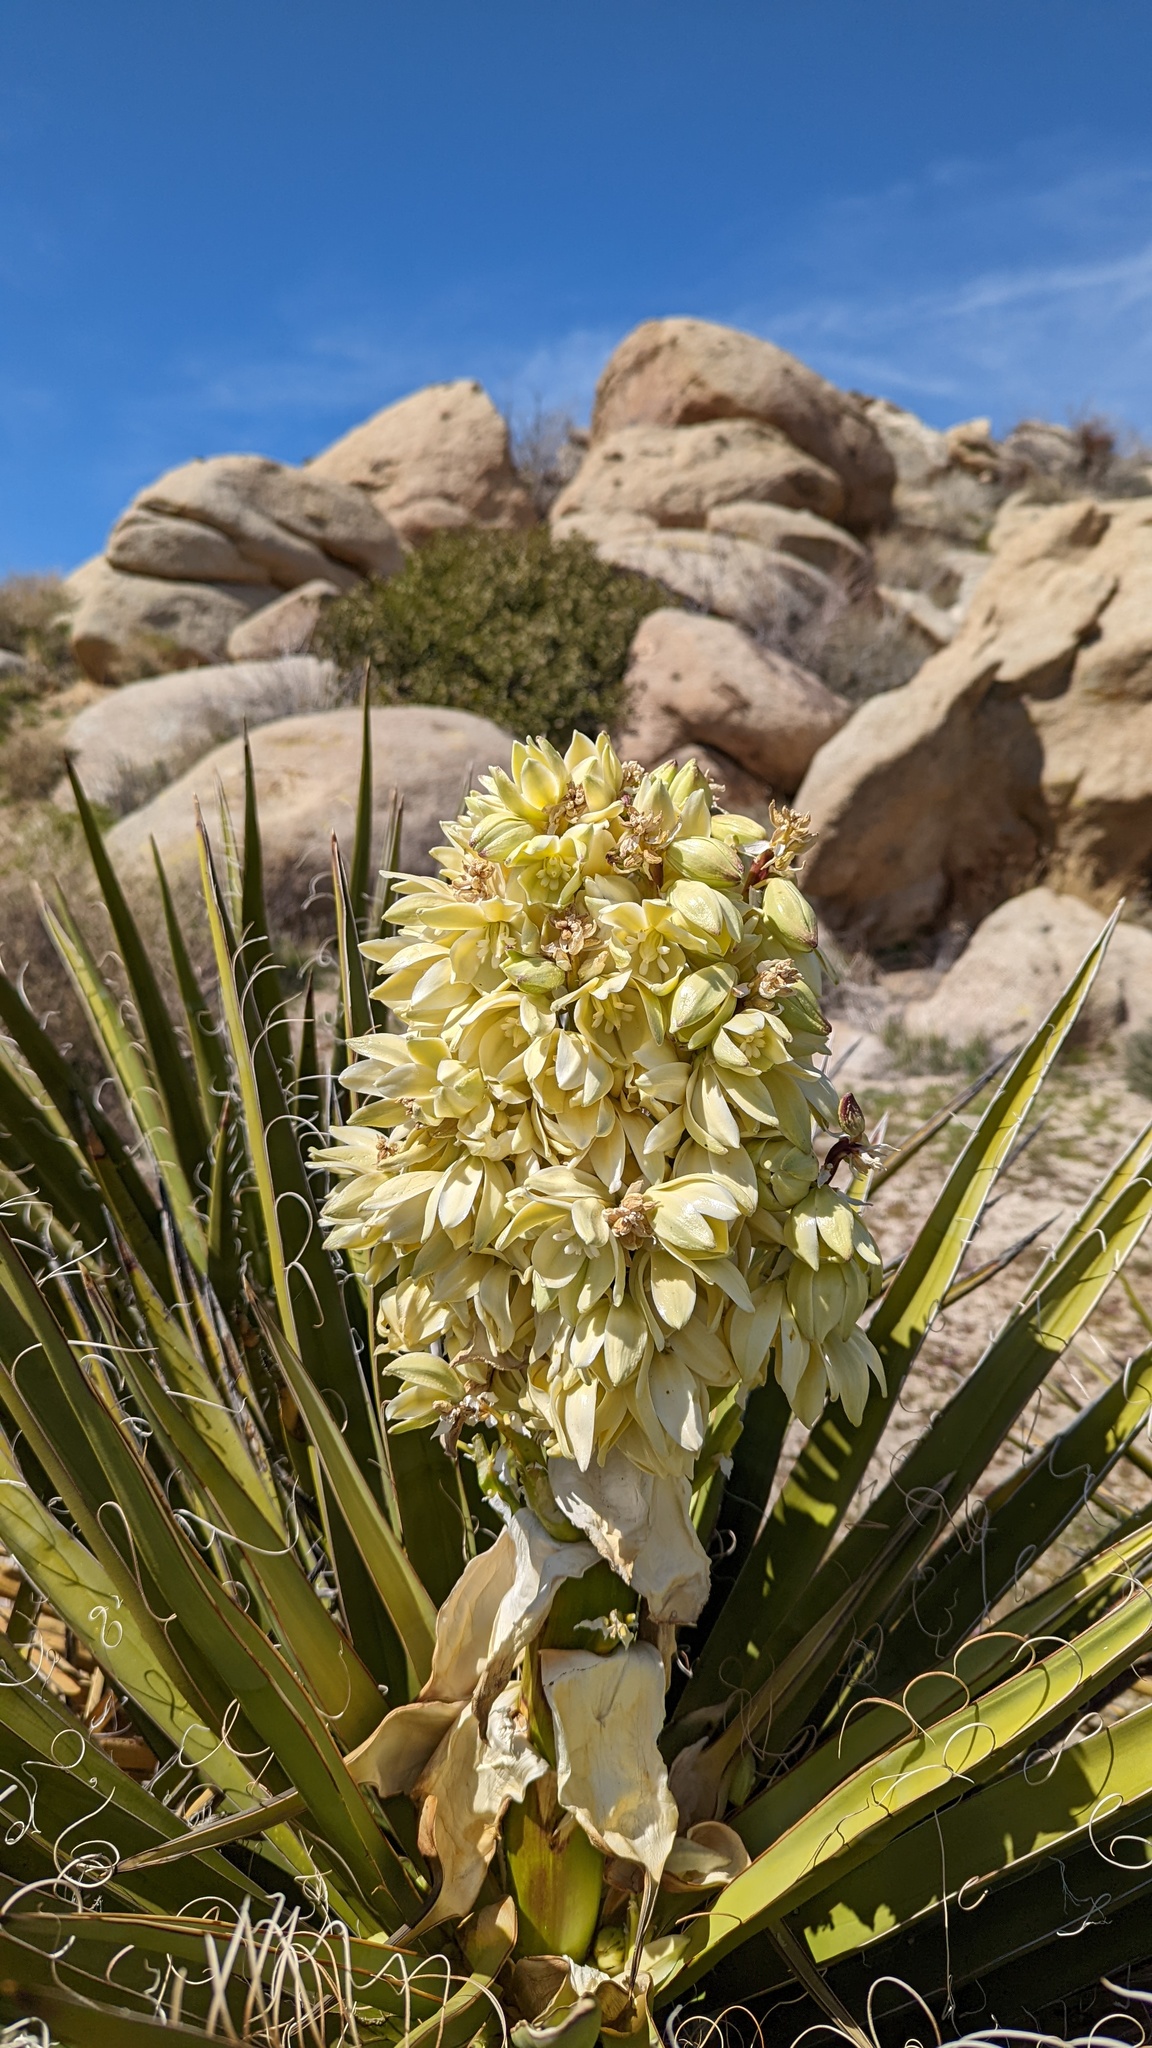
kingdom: Plantae
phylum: Tracheophyta
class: Liliopsida
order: Asparagales
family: Asparagaceae
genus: Yucca
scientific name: Yucca schidigera
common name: Mojave yucca
